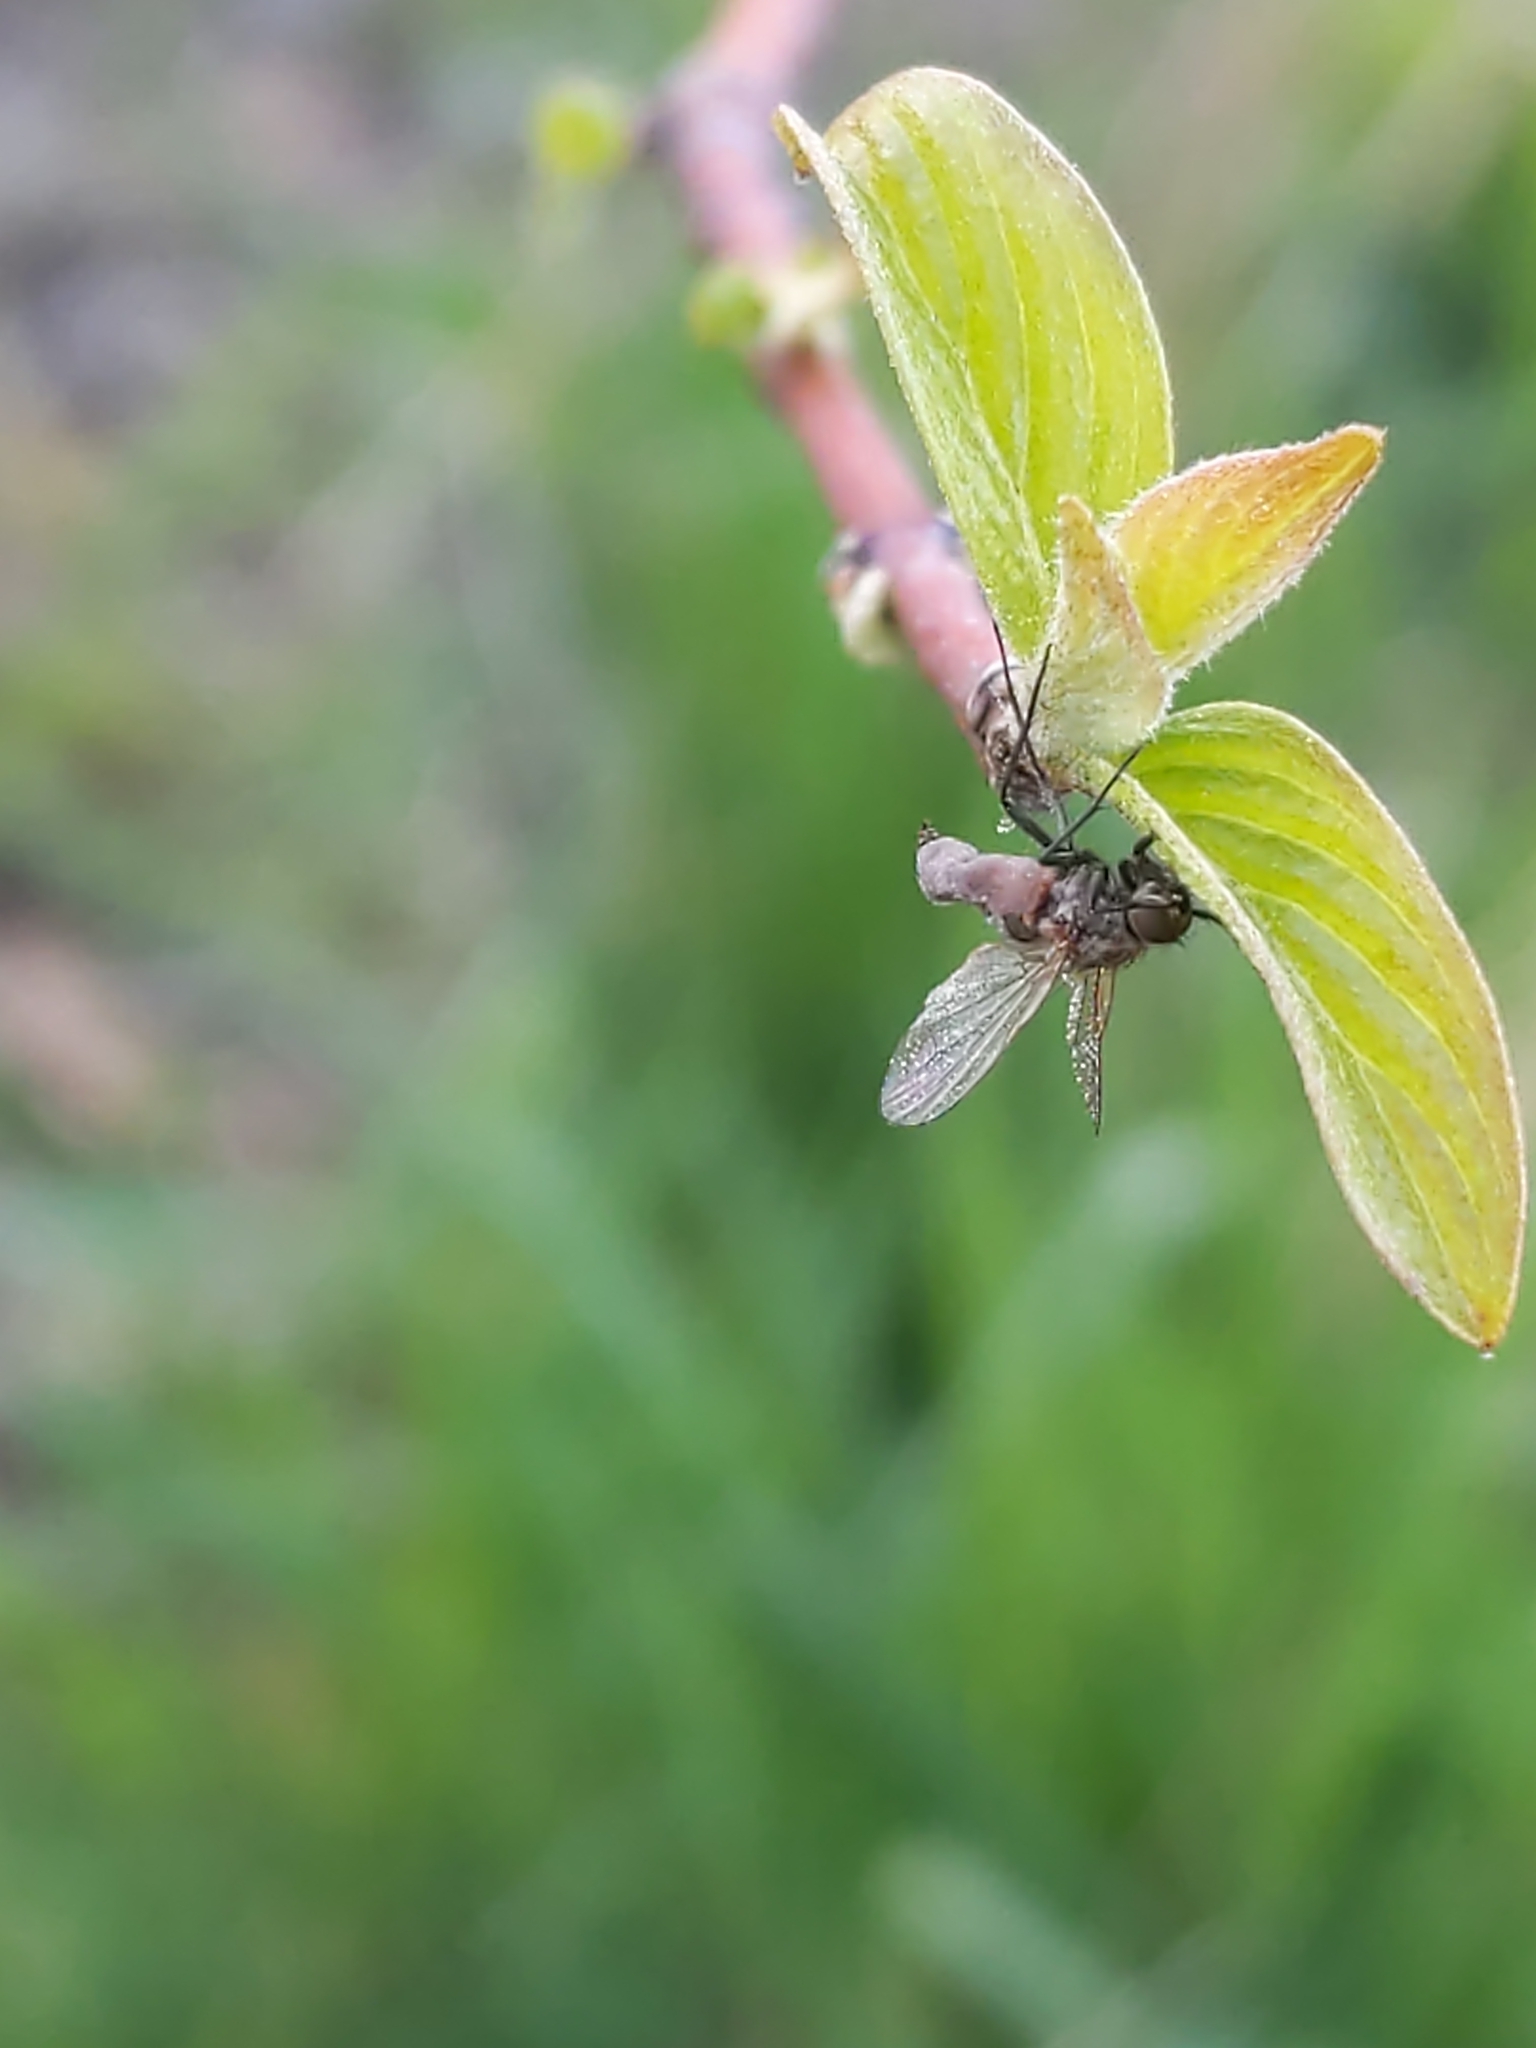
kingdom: Fungi
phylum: Entomophthoromycota
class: Entomophthoromycetes
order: Entomophthorales
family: Entomophthoraceae
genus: Entomophthora
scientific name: Entomophthora
